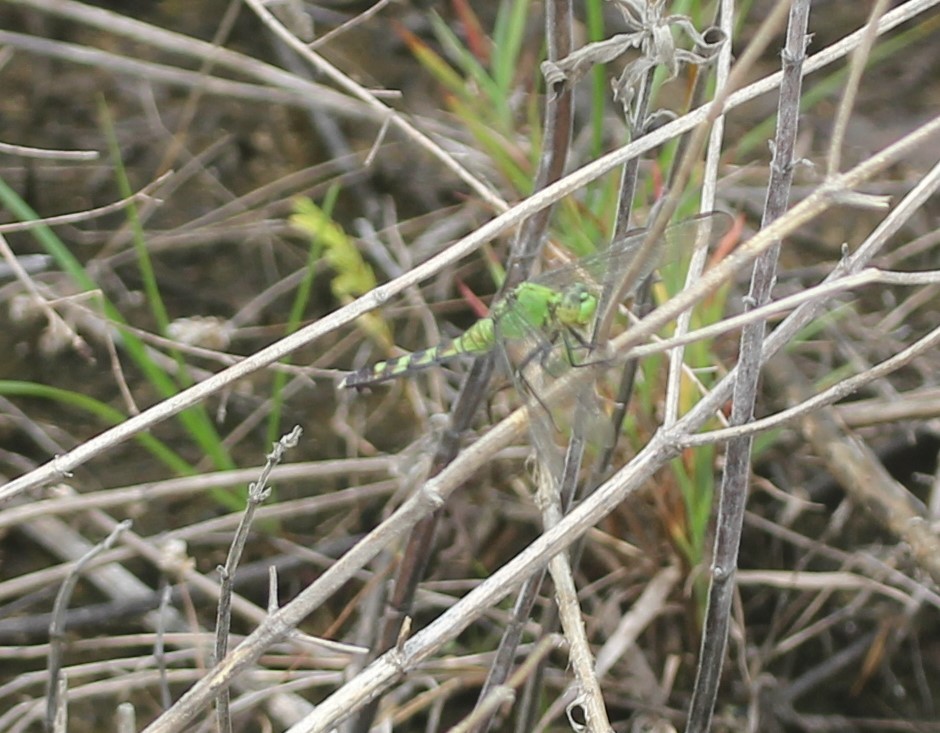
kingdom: Animalia
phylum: Arthropoda
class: Insecta
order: Odonata
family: Libellulidae
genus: Erythemis
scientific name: Erythemis simplicicollis
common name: Eastern pondhawk
